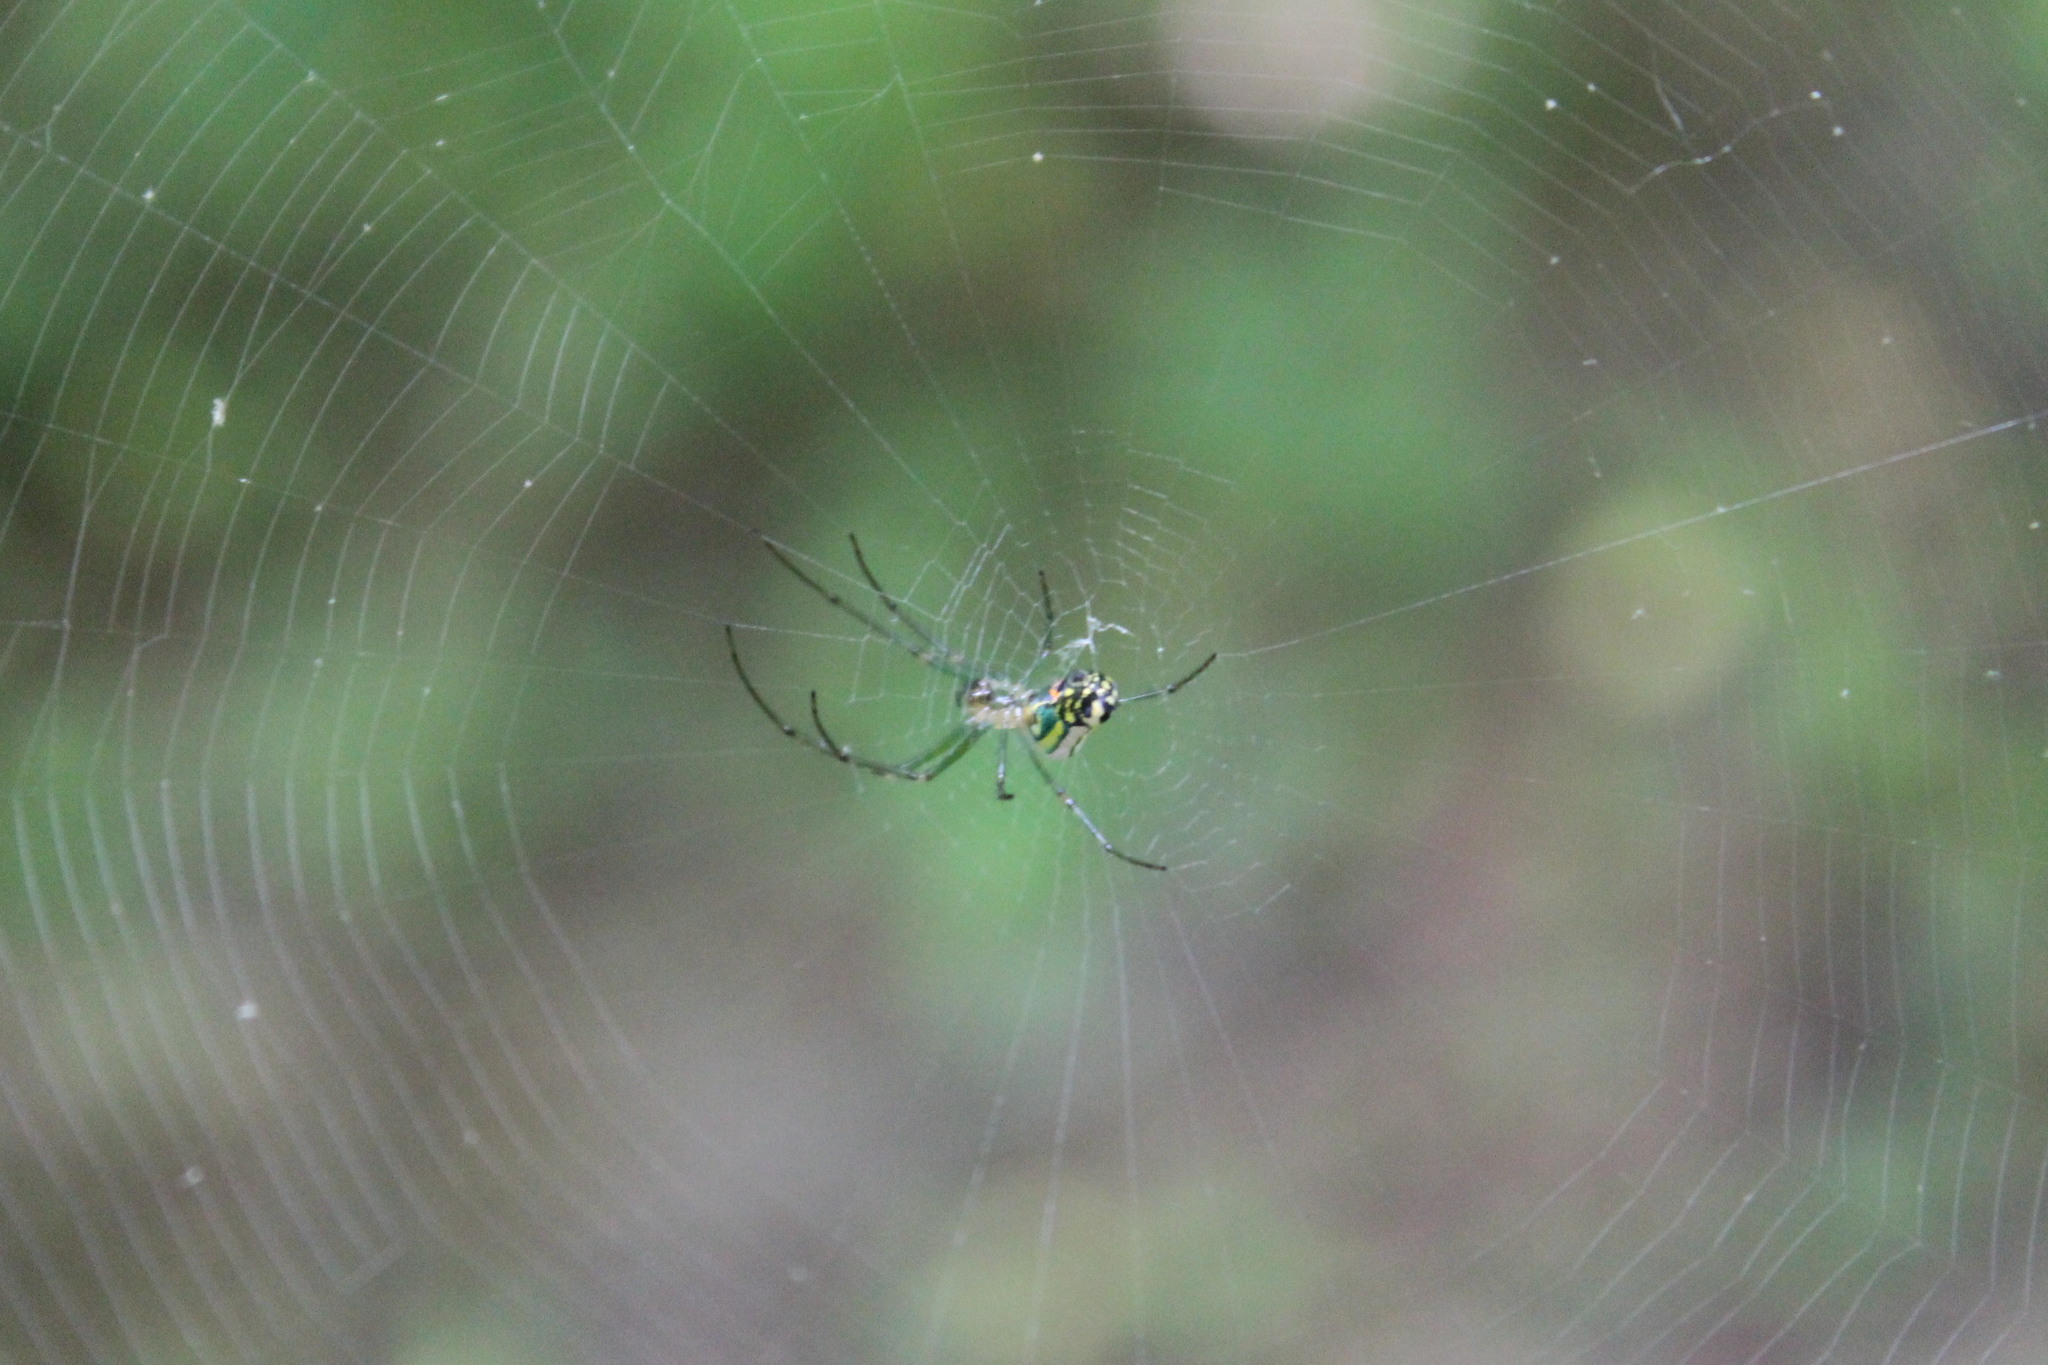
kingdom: Animalia
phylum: Arthropoda
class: Arachnida
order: Araneae
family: Tetragnathidae
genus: Leucauge
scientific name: Leucauge venusta
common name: Longjawed orb weavers
